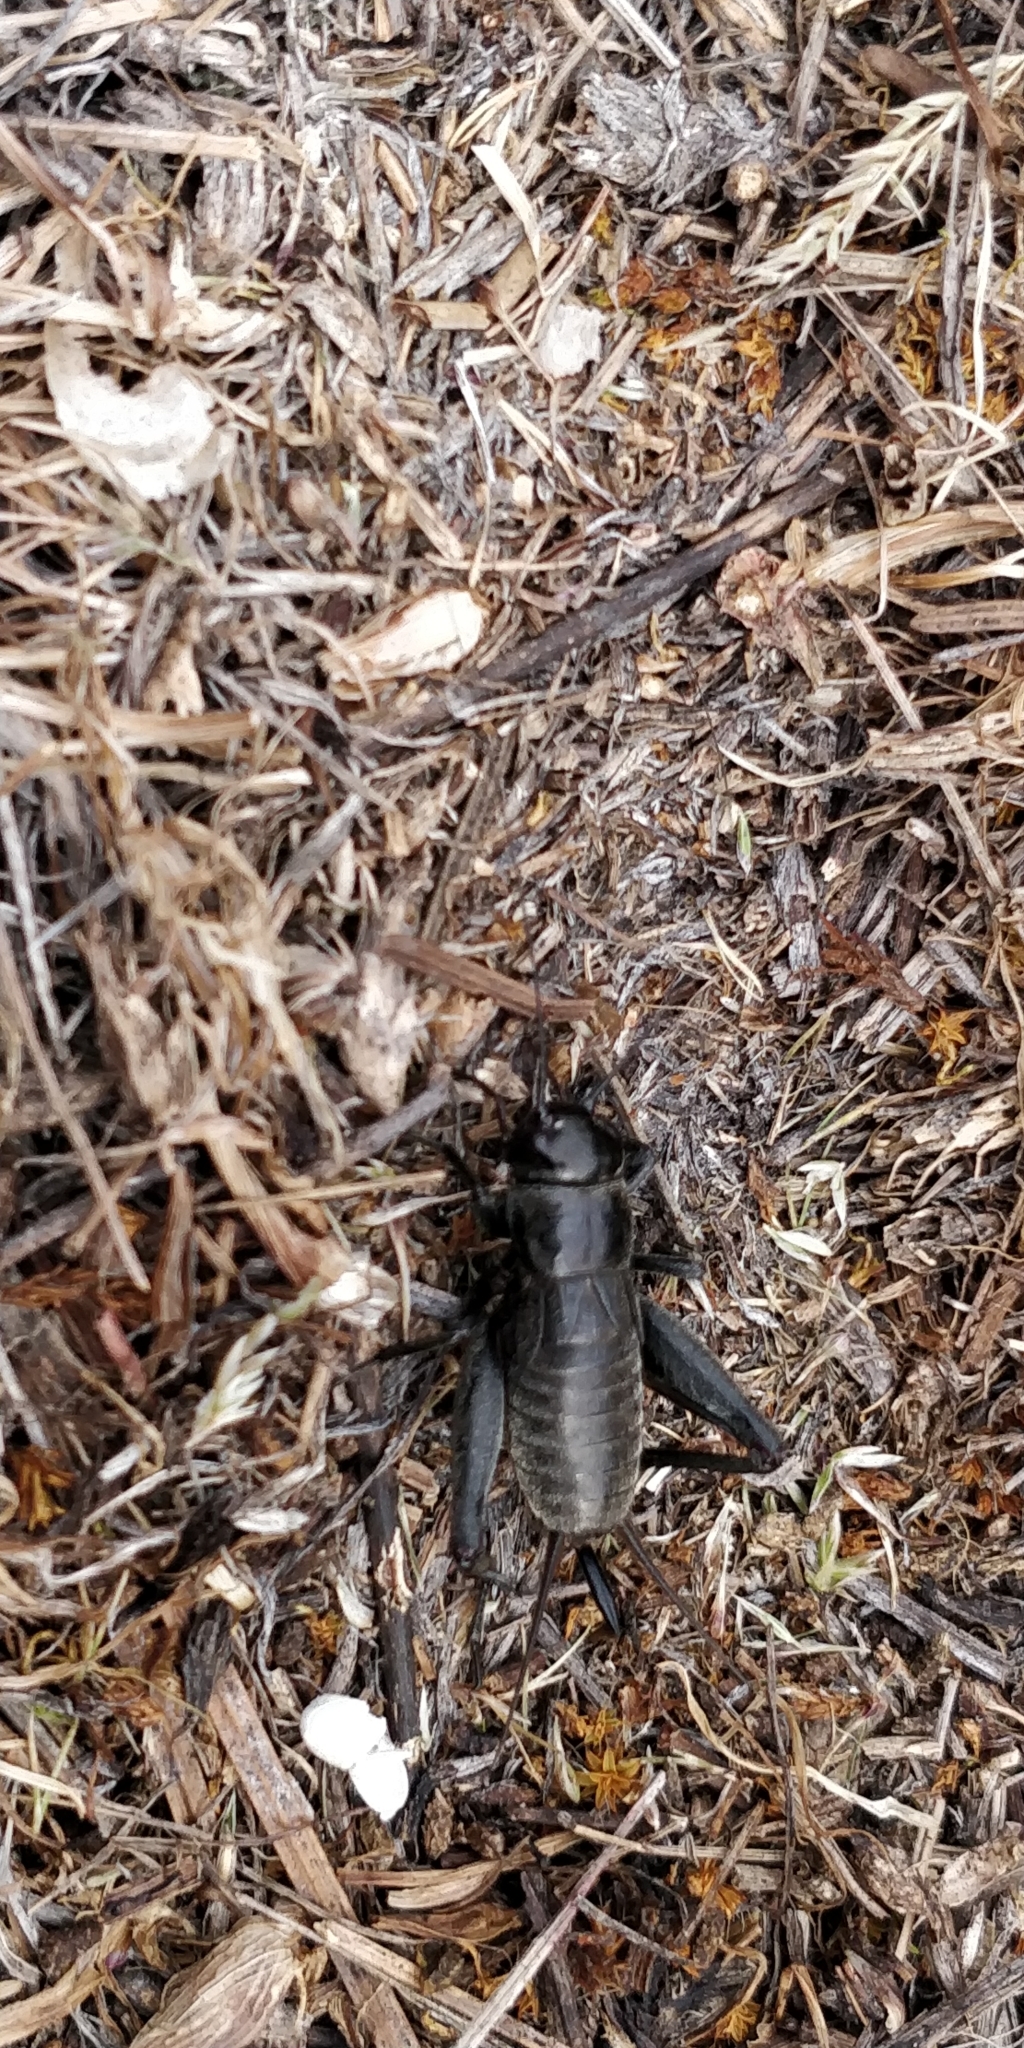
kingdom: Animalia
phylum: Arthropoda
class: Insecta
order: Orthoptera
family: Gryllidae
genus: Gryllus
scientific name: Gryllus saxatilis
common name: Western rock-loving field cricket
